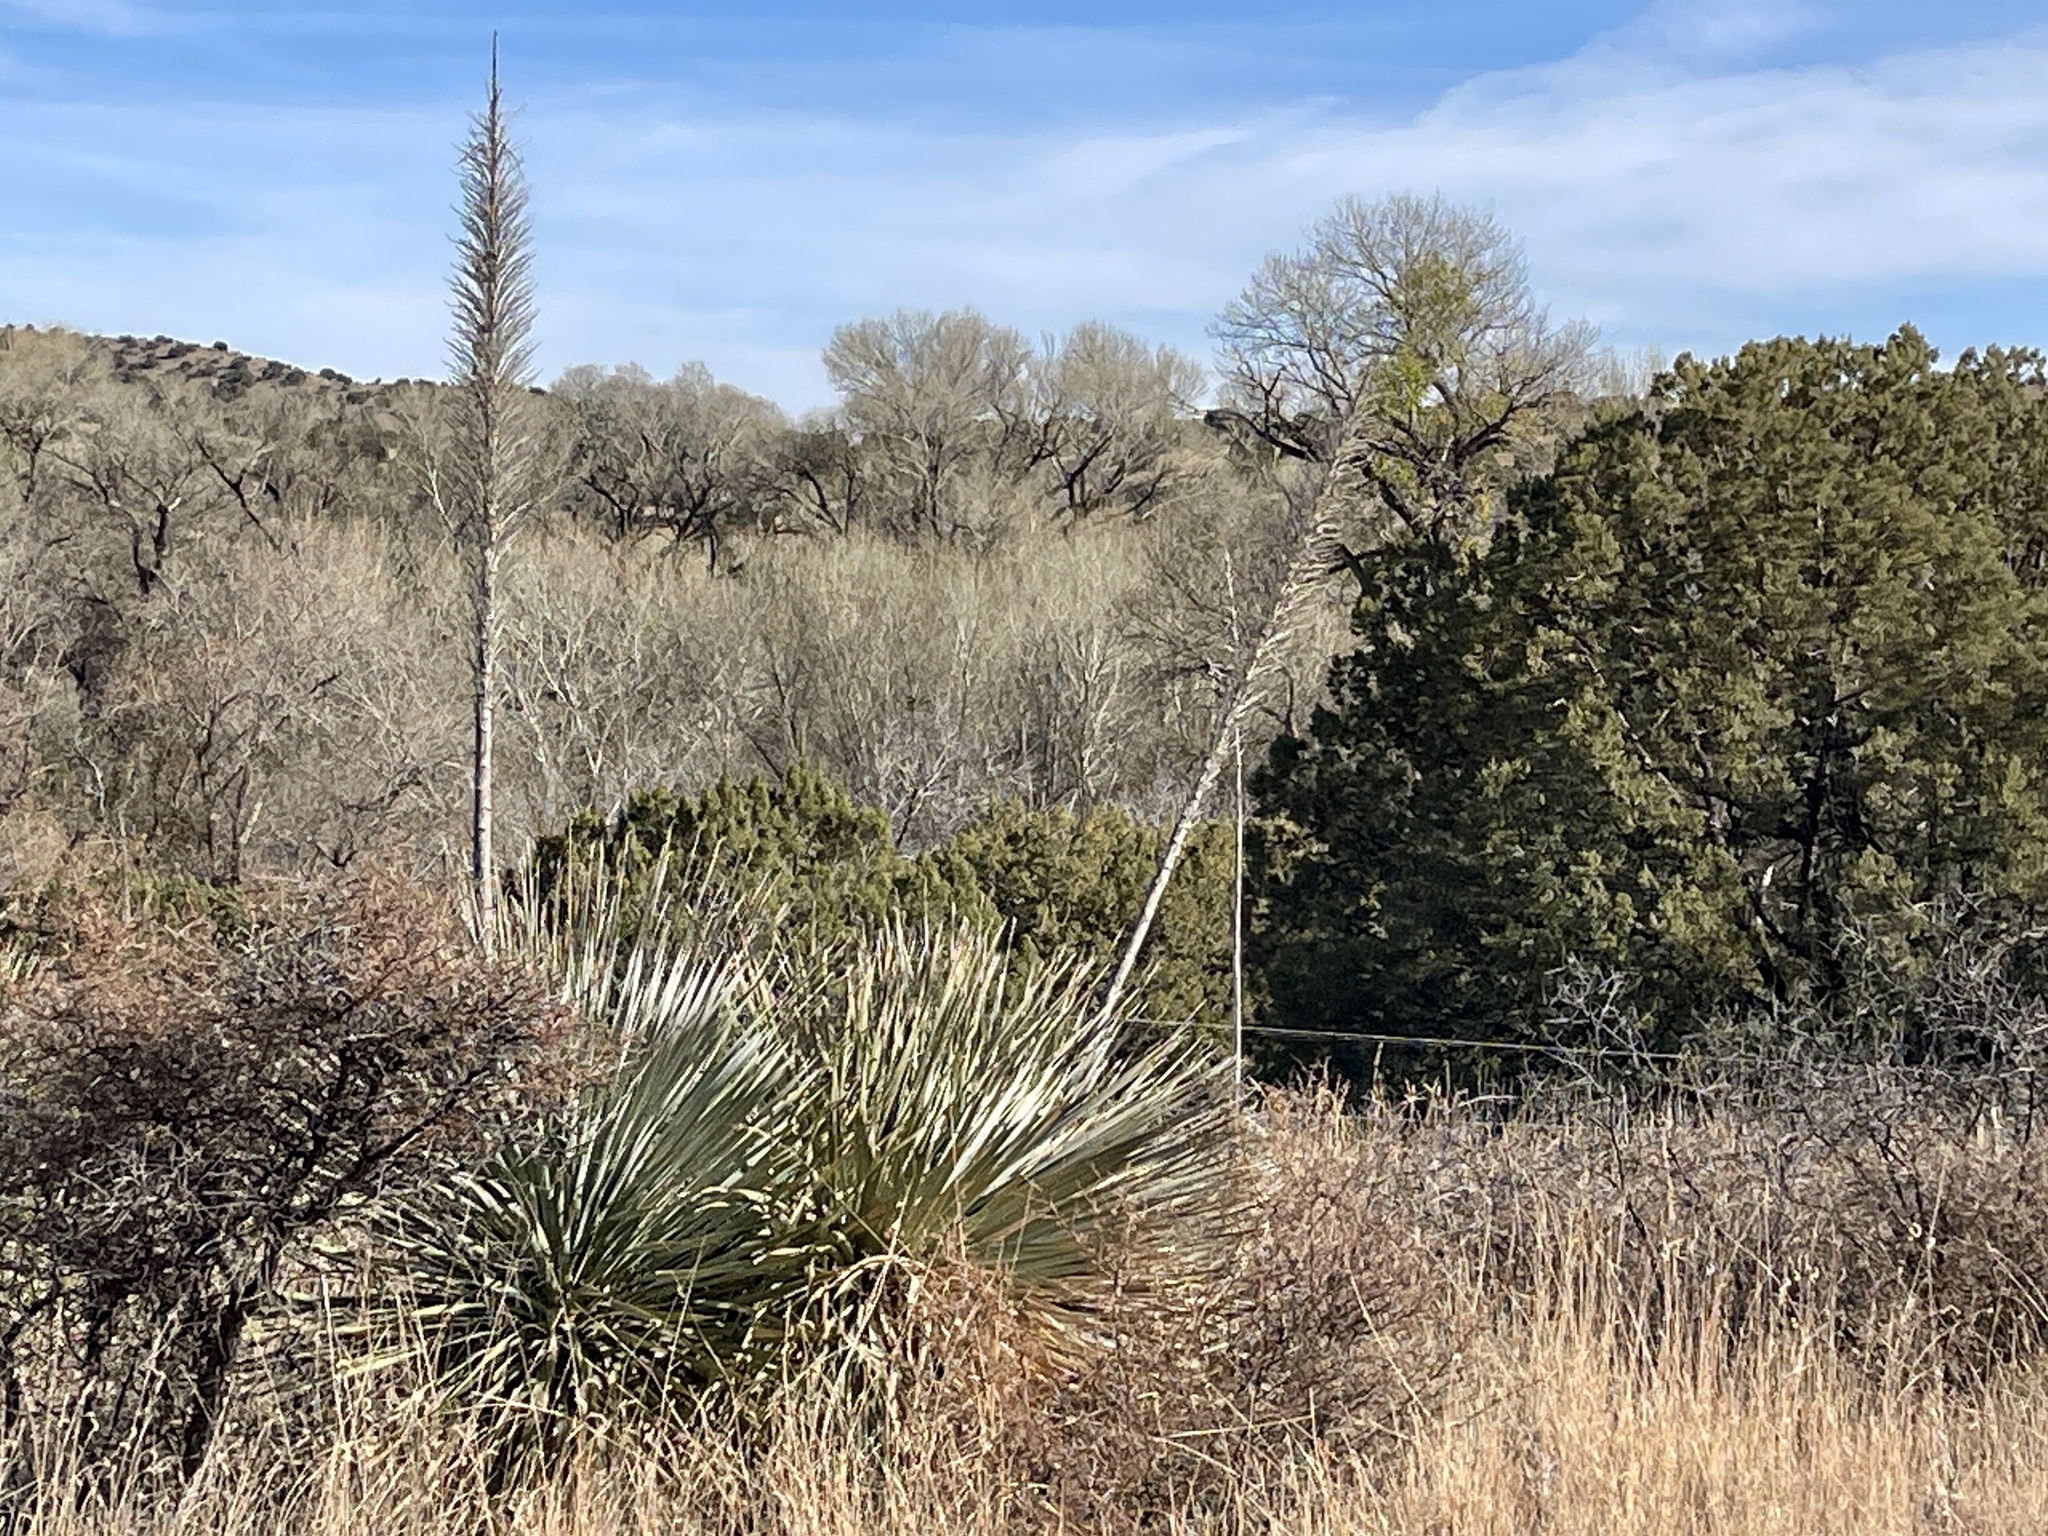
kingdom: Plantae
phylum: Tracheophyta
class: Liliopsida
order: Asparagales
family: Asparagaceae
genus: Dasylirion
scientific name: Dasylirion wheeleri
